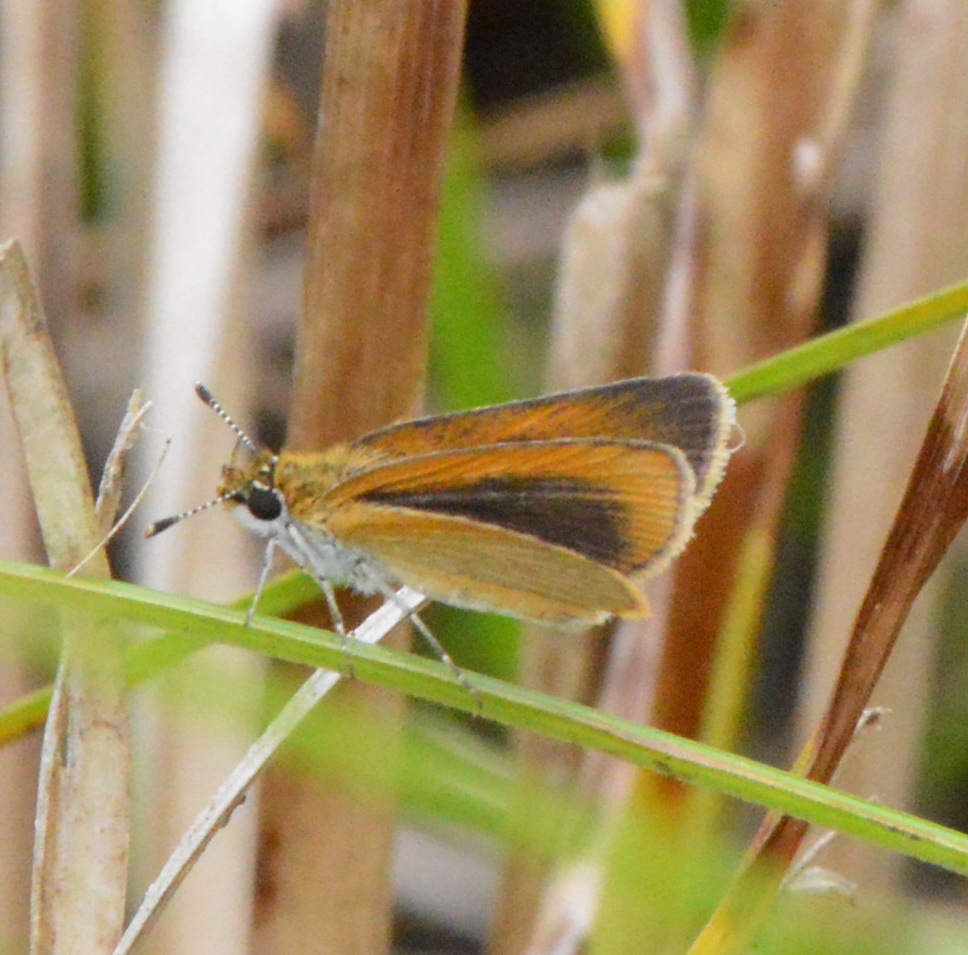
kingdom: Animalia
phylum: Arthropoda
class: Insecta
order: Lepidoptera
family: Hesperiidae
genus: Ancyloxypha
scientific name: Ancyloxypha numitor
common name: Least skipper
